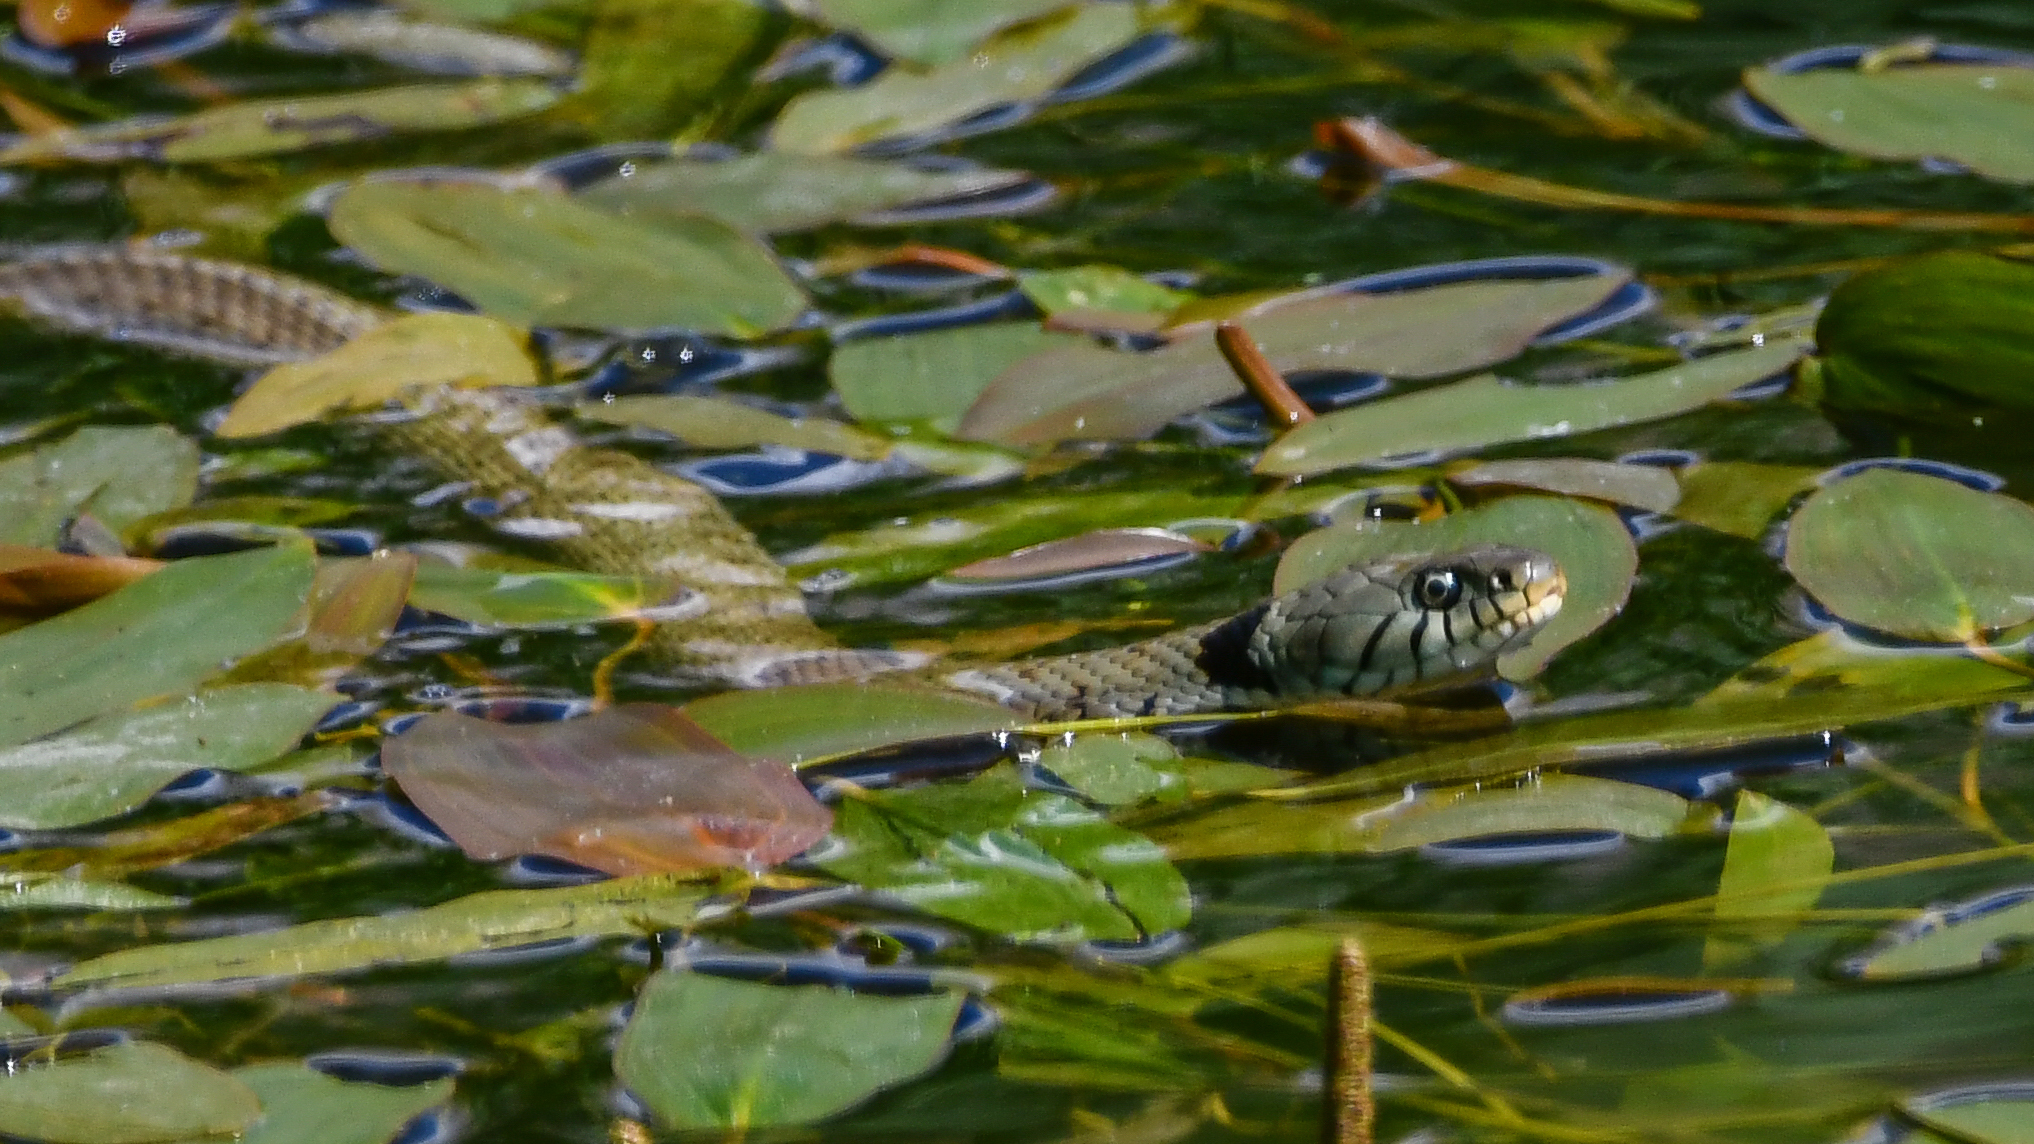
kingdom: Animalia
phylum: Chordata
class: Squamata
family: Colubridae
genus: Natrix
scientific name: Natrix helvetica
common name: Banded grass snake
